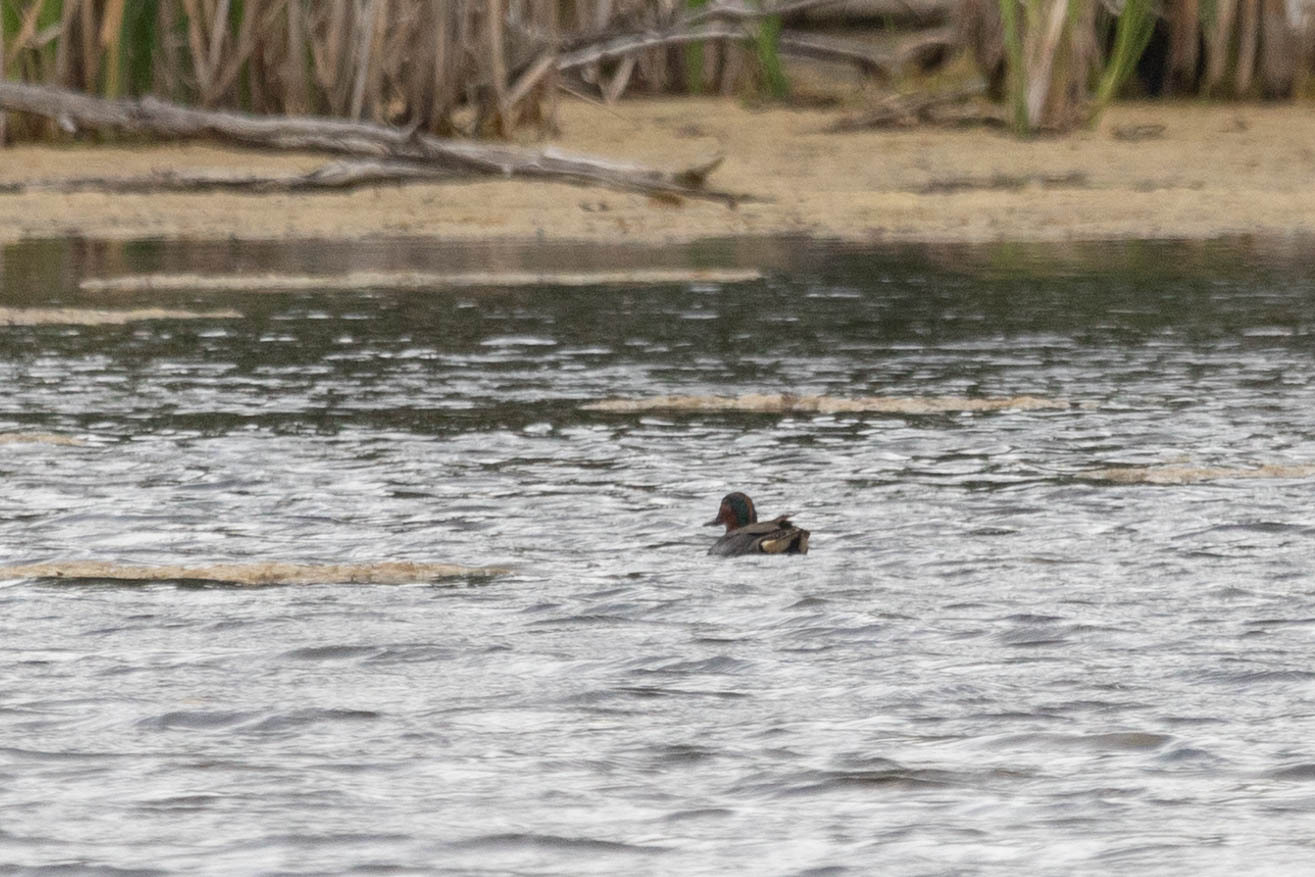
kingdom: Animalia
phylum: Chordata
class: Aves
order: Anseriformes
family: Anatidae
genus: Anas
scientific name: Anas carolinensis
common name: Green-winged teal
